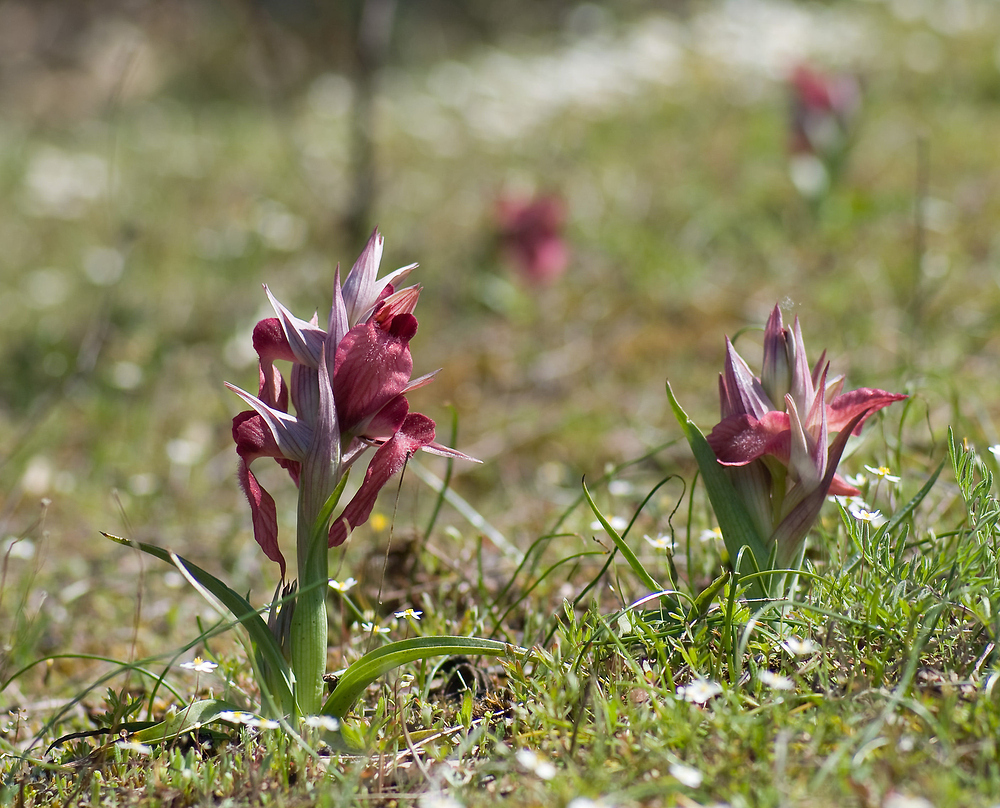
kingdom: Plantae
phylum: Tracheophyta
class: Liliopsida
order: Asparagales
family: Orchidaceae
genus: Serapias
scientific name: Serapias neglecta
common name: Neglected serapias
